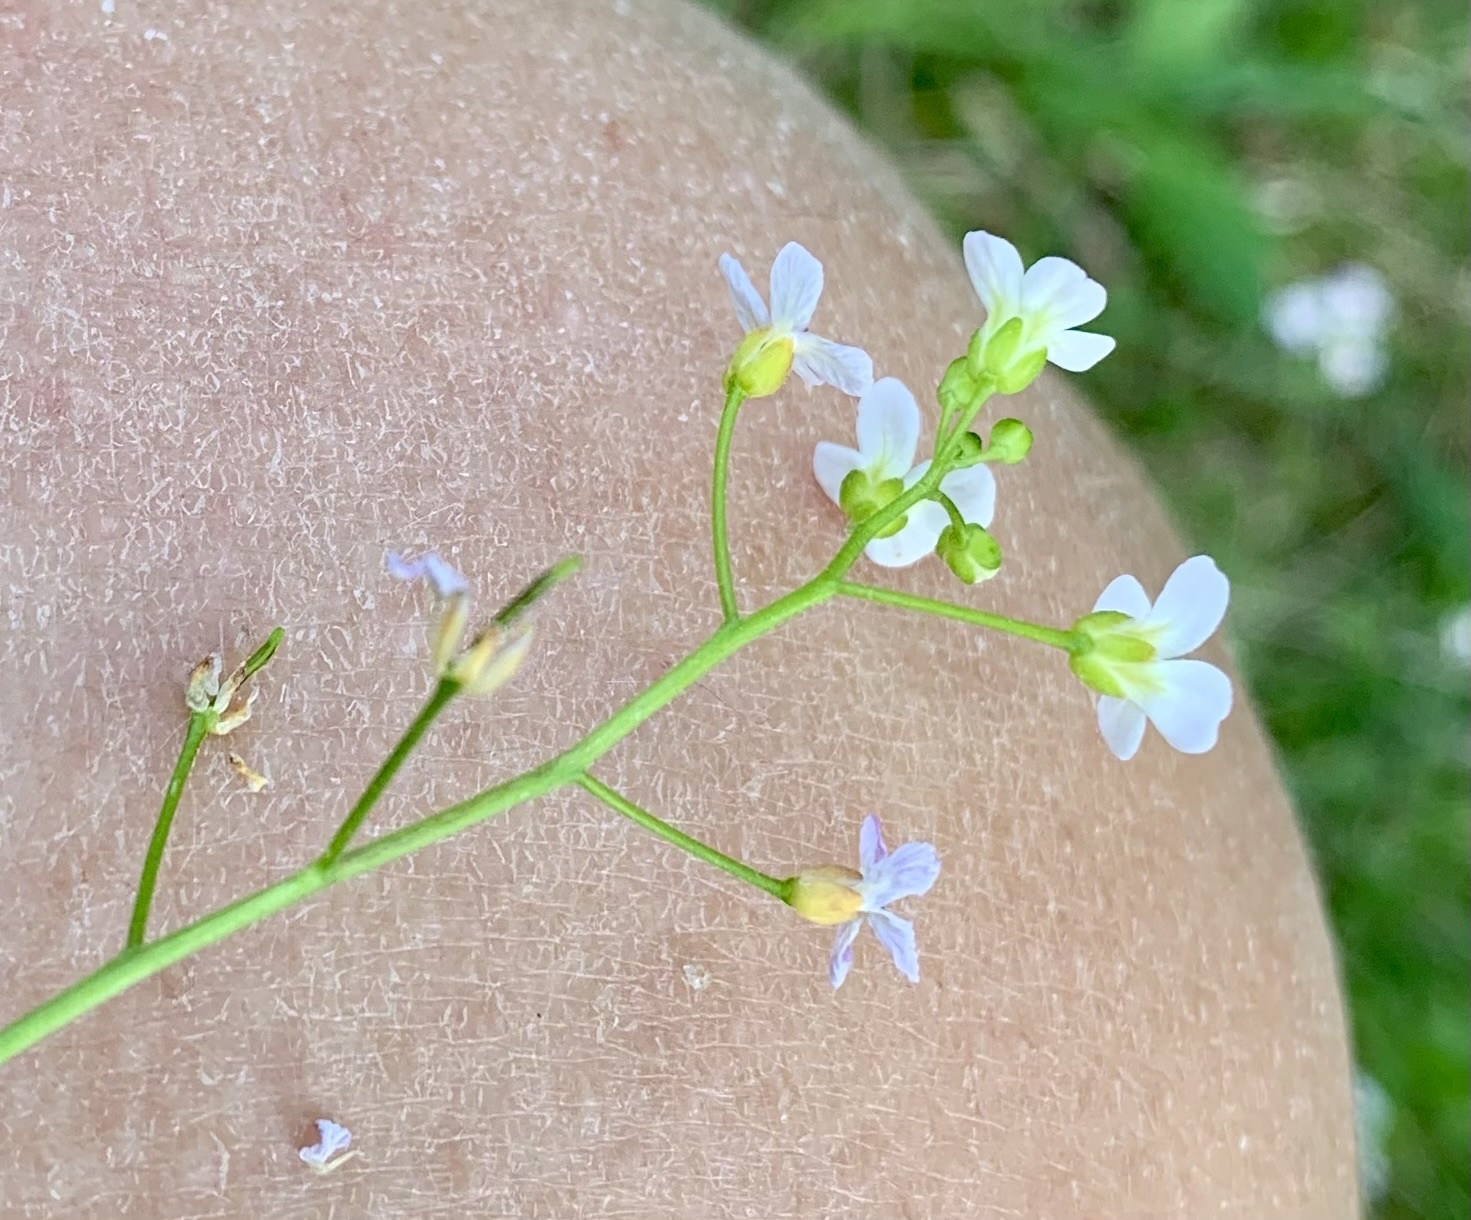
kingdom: Plantae
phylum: Tracheophyta
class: Magnoliopsida
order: Brassicales
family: Brassicaceae
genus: Arabidopsis
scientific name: Arabidopsis halleri
